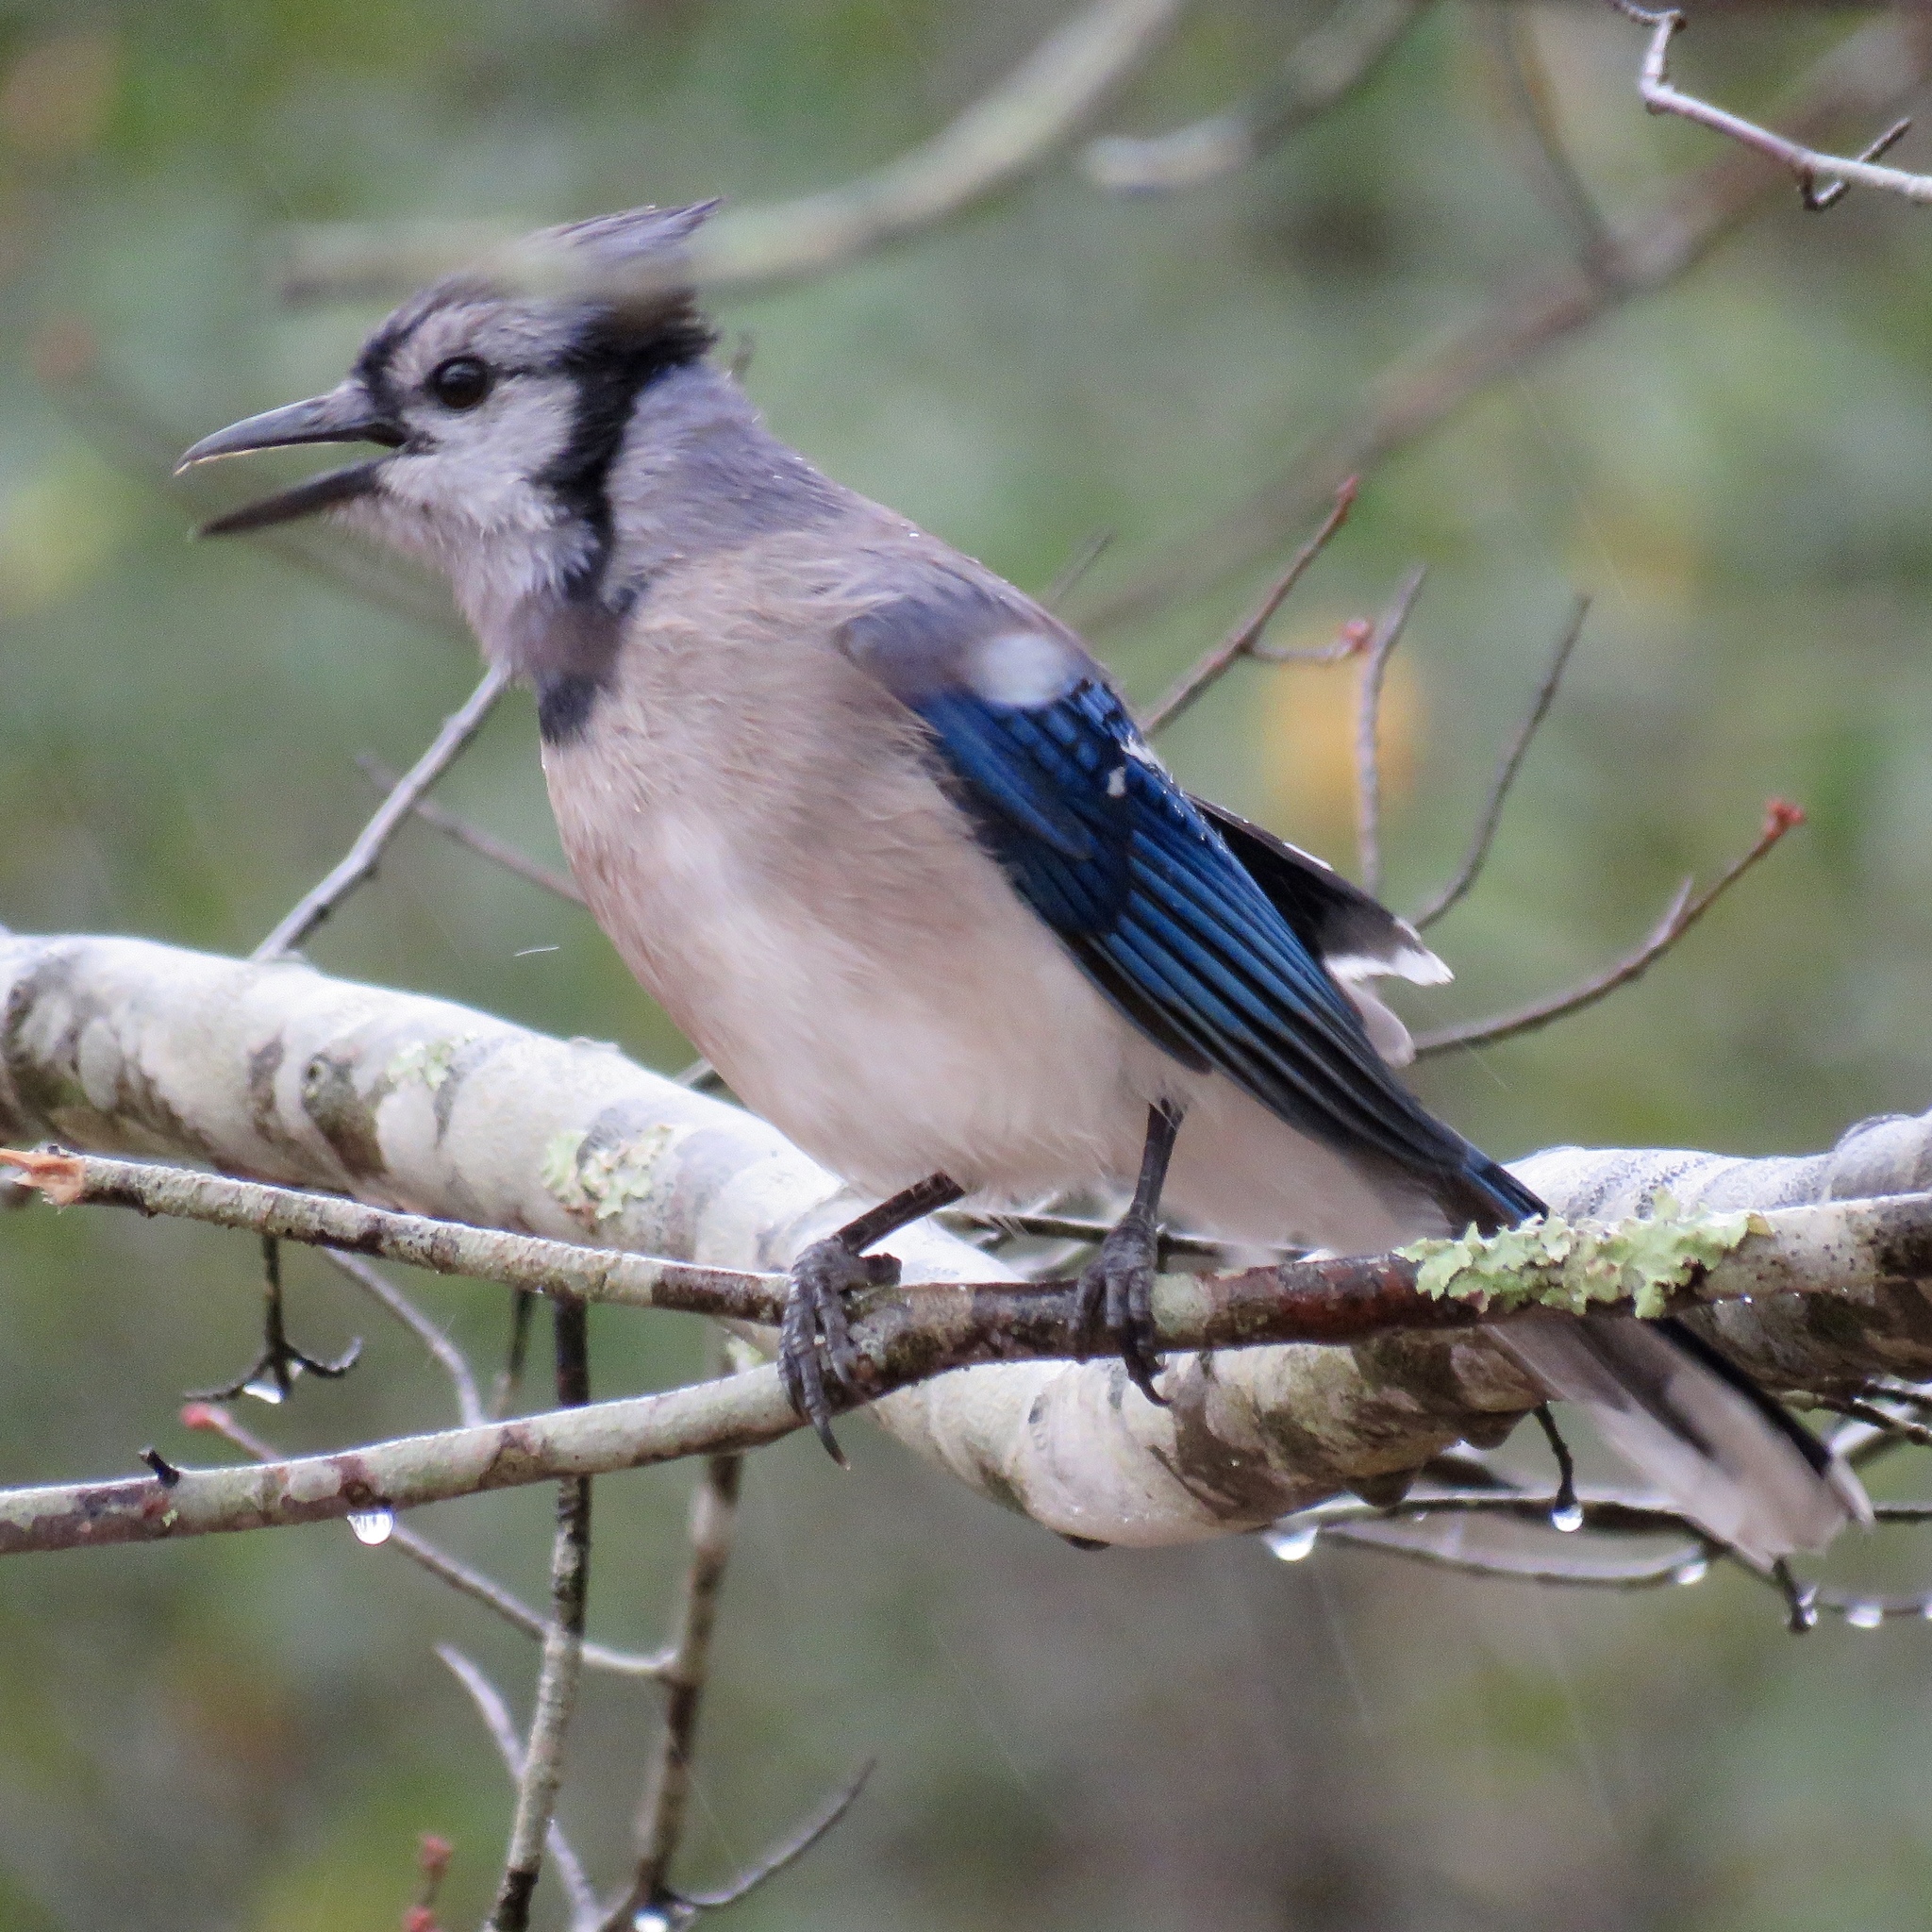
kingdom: Animalia
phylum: Chordata
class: Aves
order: Passeriformes
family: Corvidae
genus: Cyanocitta
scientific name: Cyanocitta cristata
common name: Blue jay
